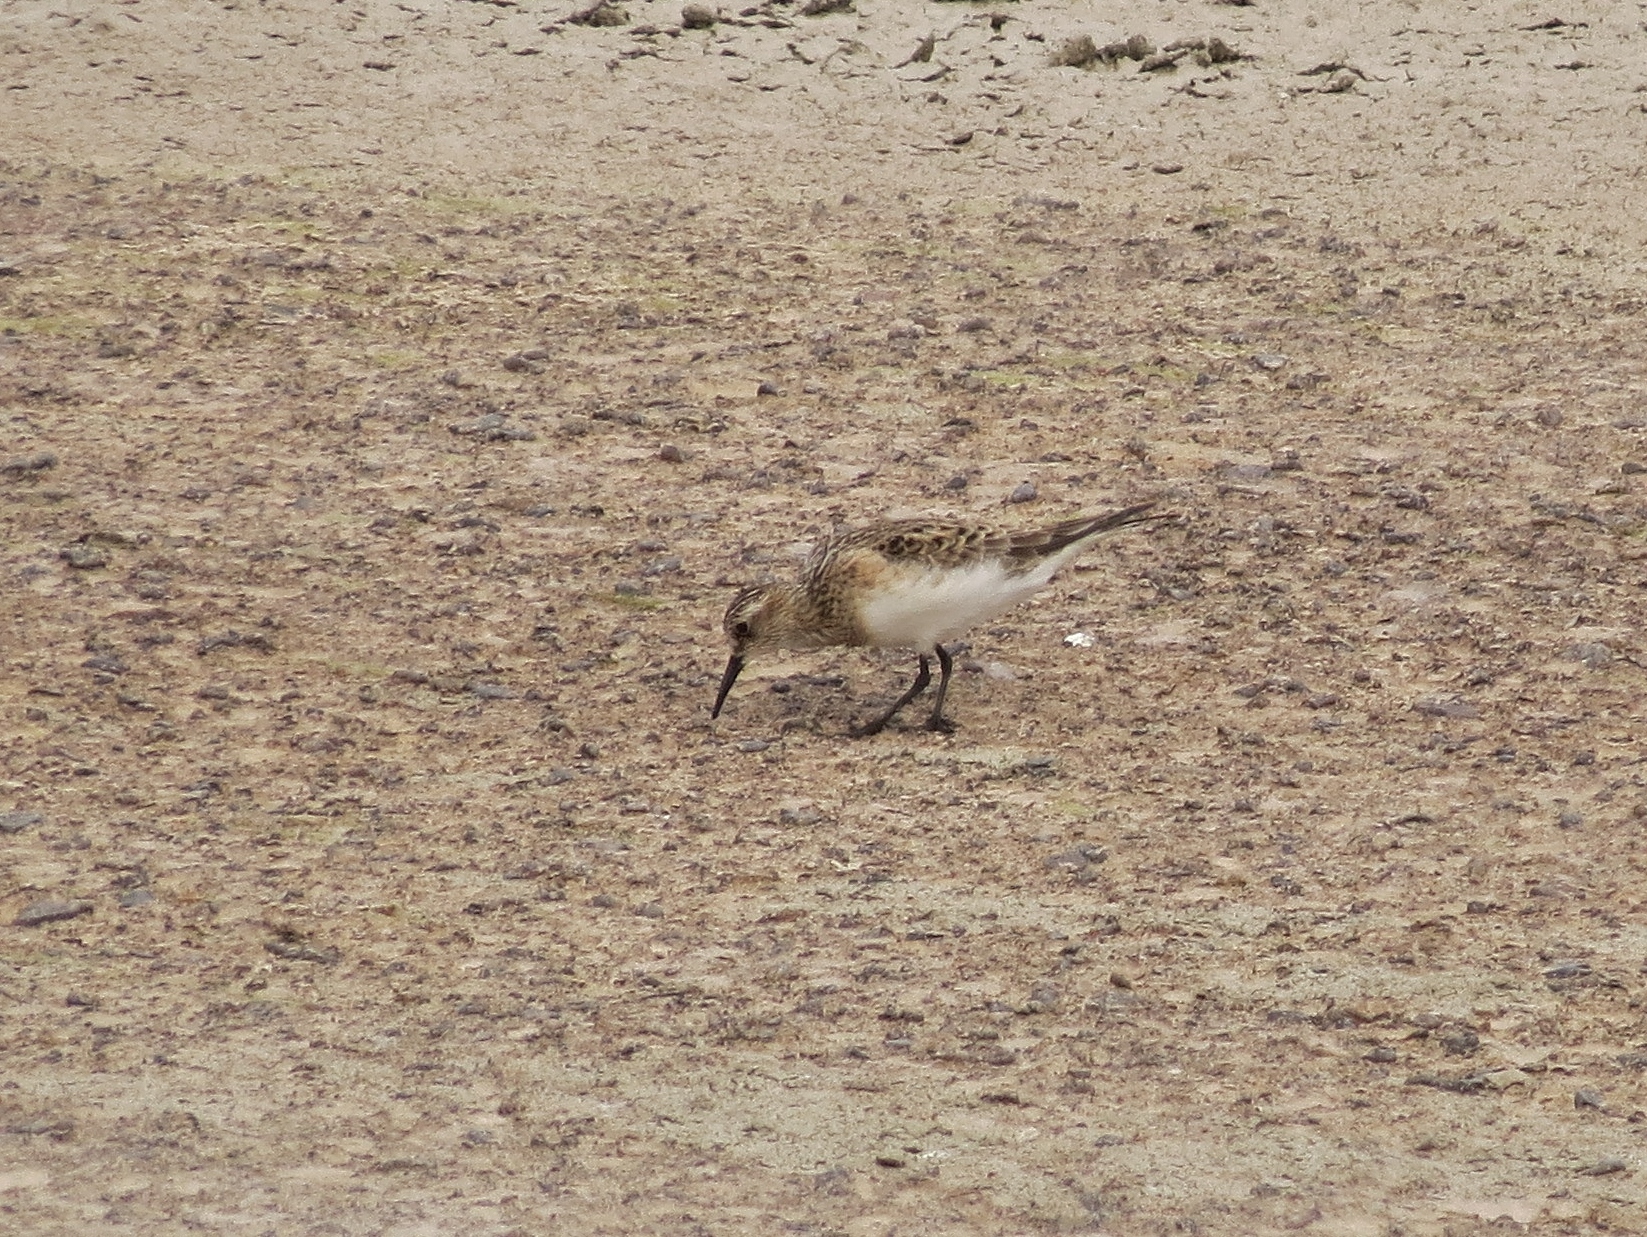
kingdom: Animalia
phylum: Chordata
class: Aves
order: Charadriiformes
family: Scolopacidae
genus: Calidris
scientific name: Calidris bairdii
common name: Baird's sandpiper
